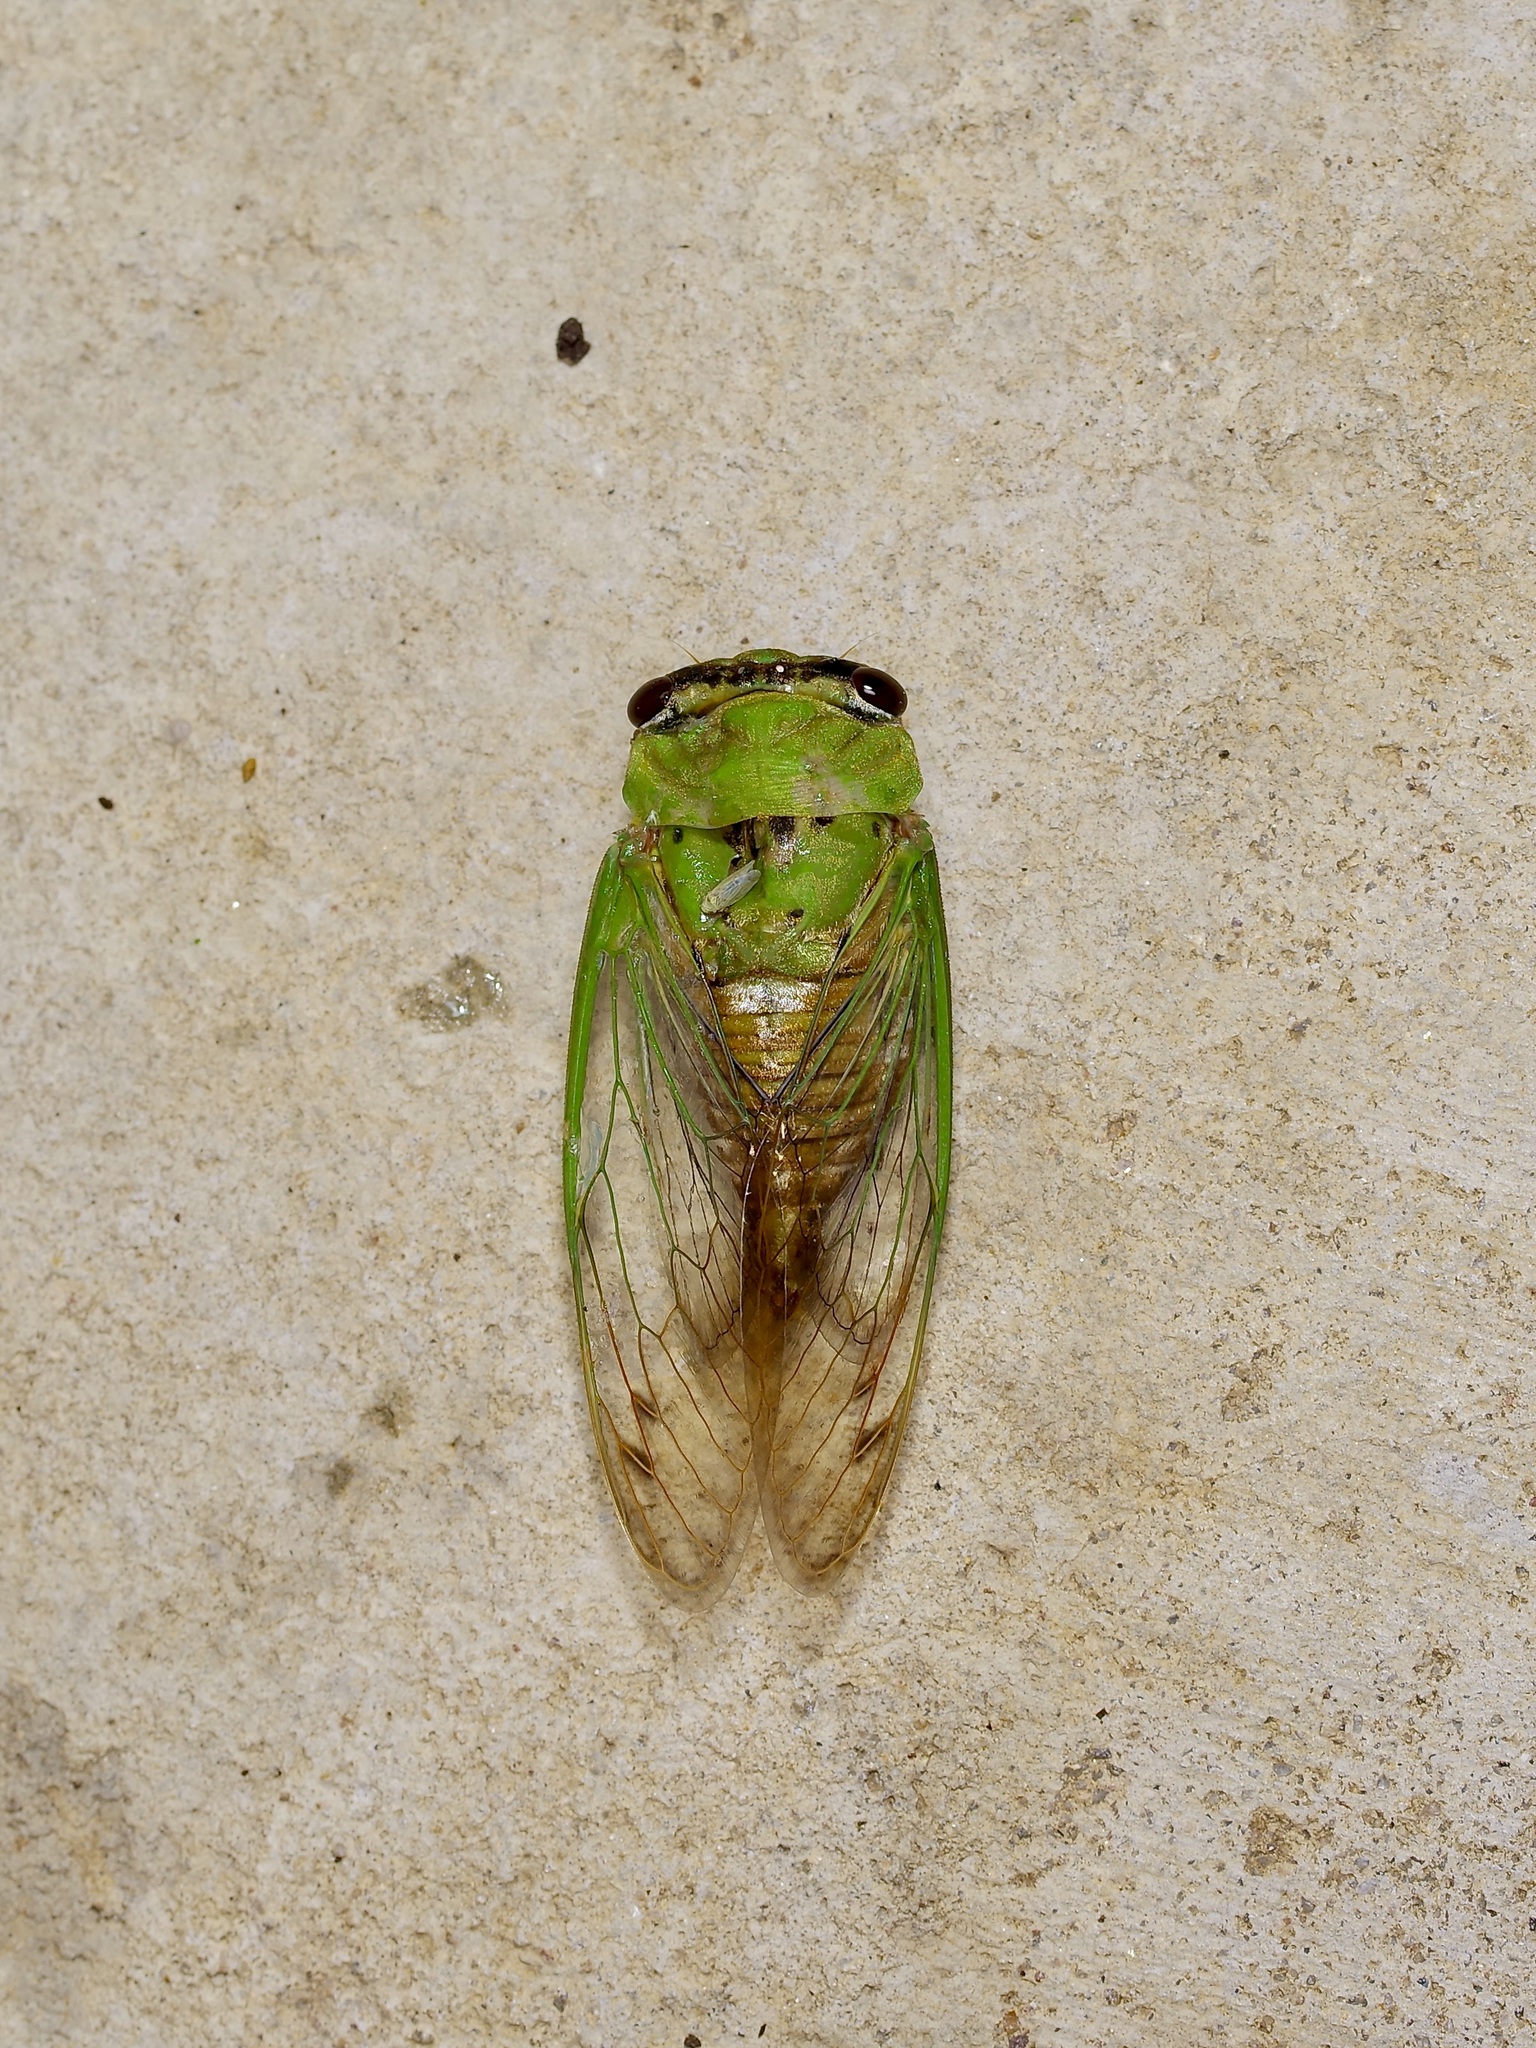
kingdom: Animalia
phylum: Arthropoda
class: Insecta
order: Hemiptera
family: Cicadidae
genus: Neotibicen
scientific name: Neotibicen superbus
